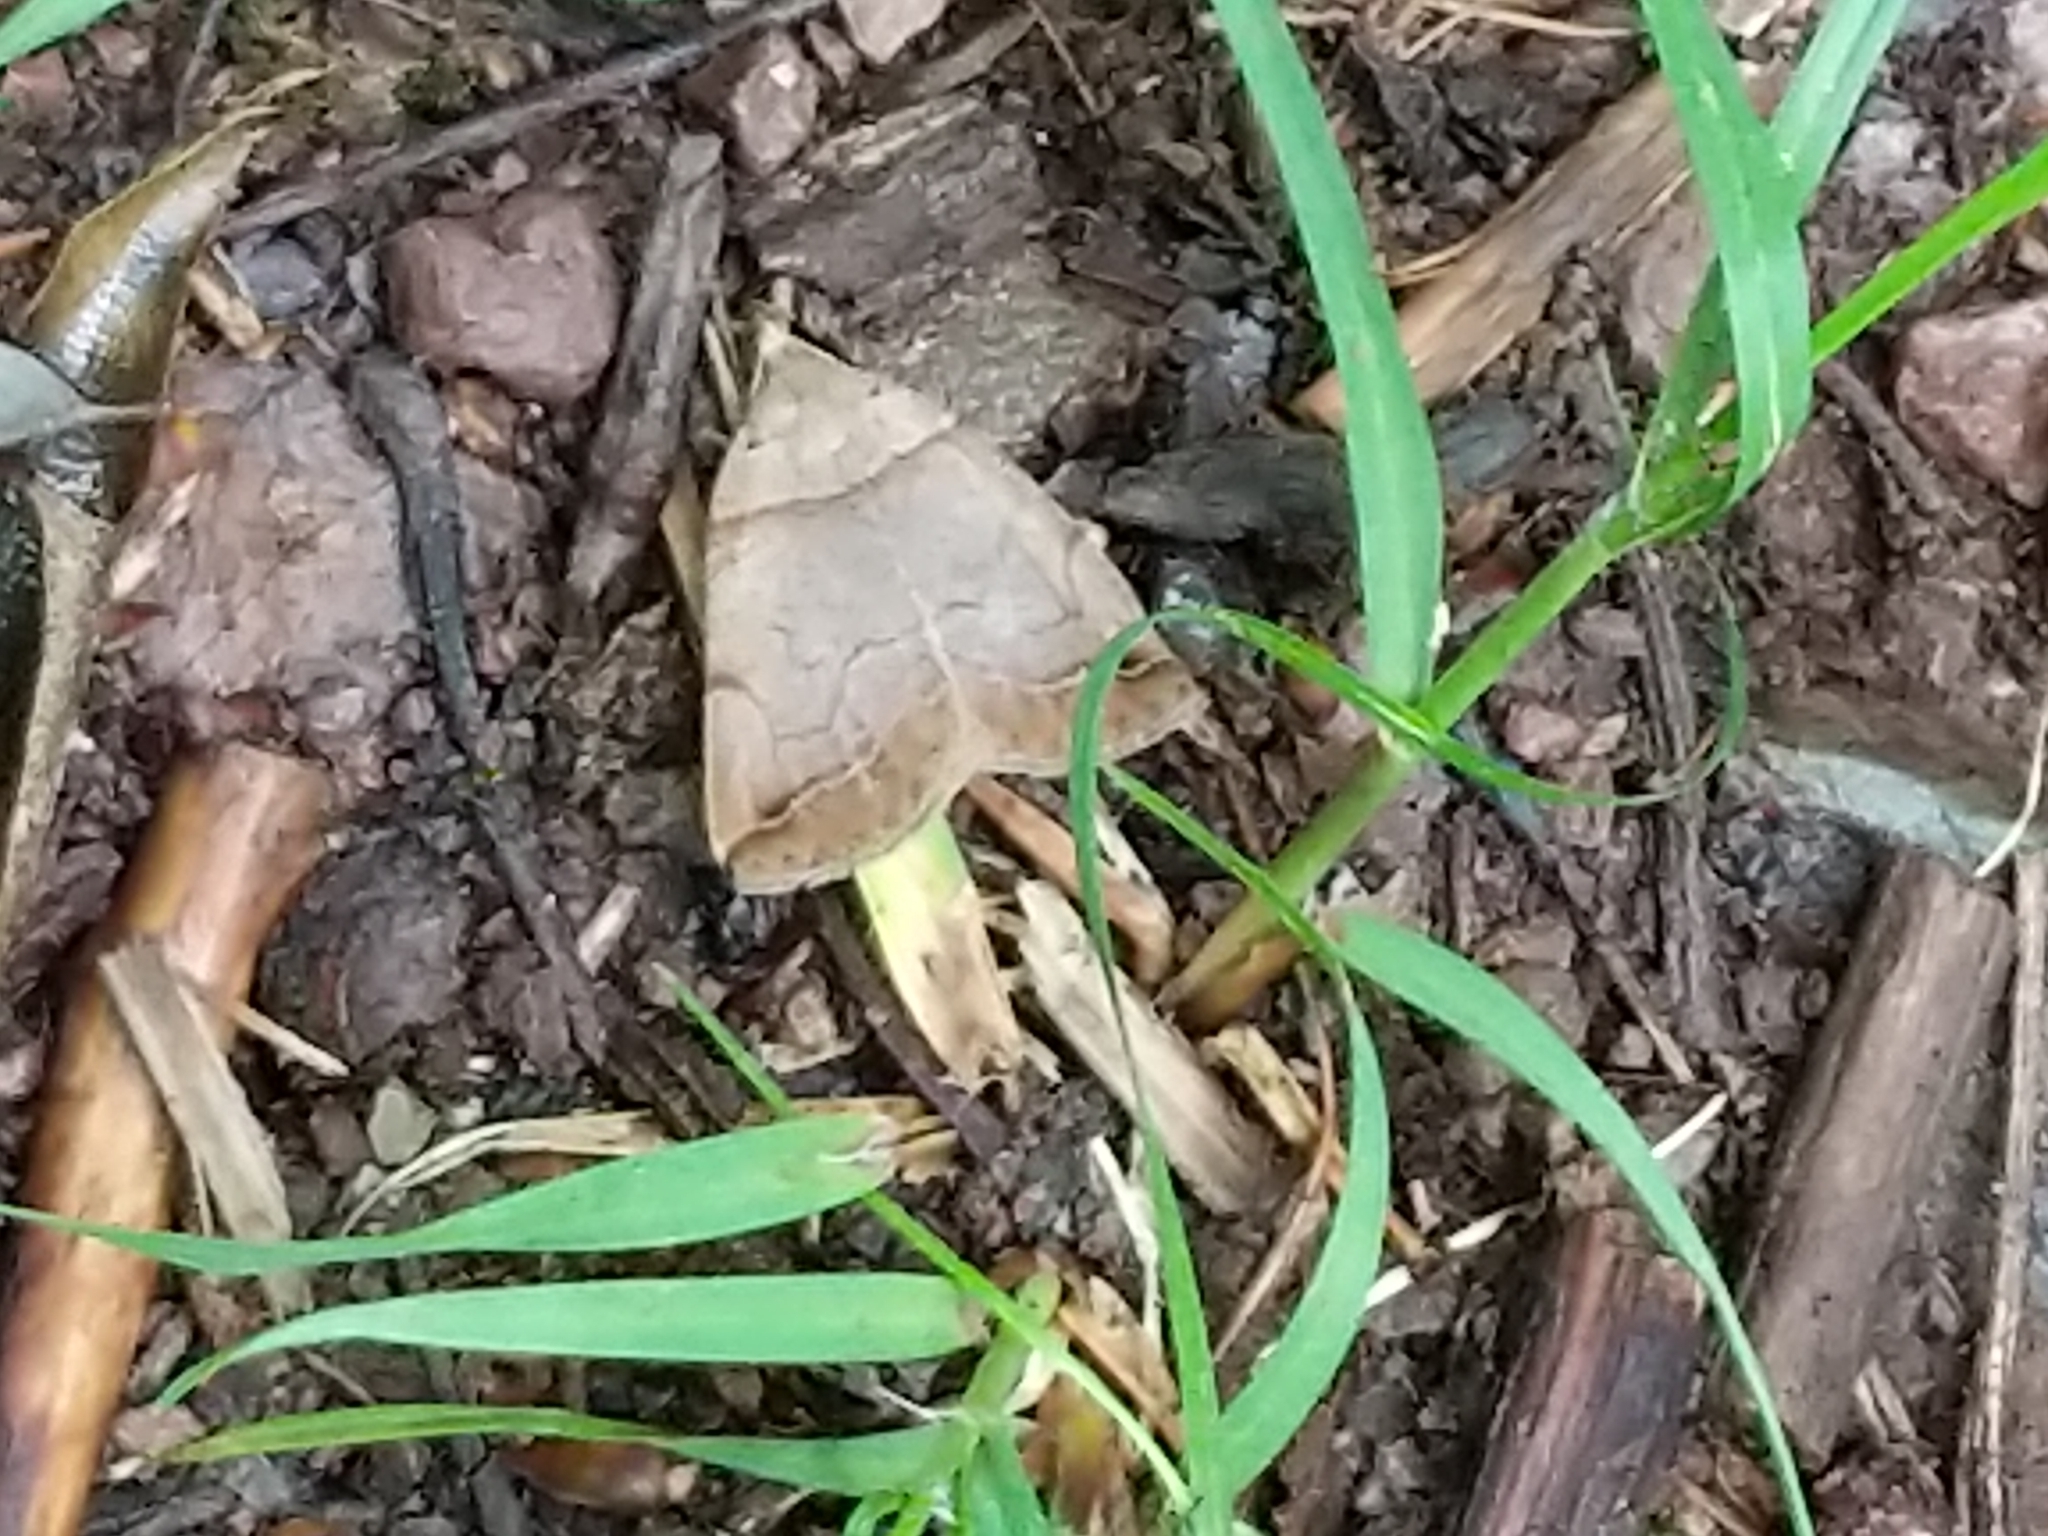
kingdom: Animalia
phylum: Arthropoda
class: Insecta
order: Lepidoptera
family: Erebidae
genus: Zanclognatha
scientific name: Zanclognatha laevigata
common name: Variable fan-foot
